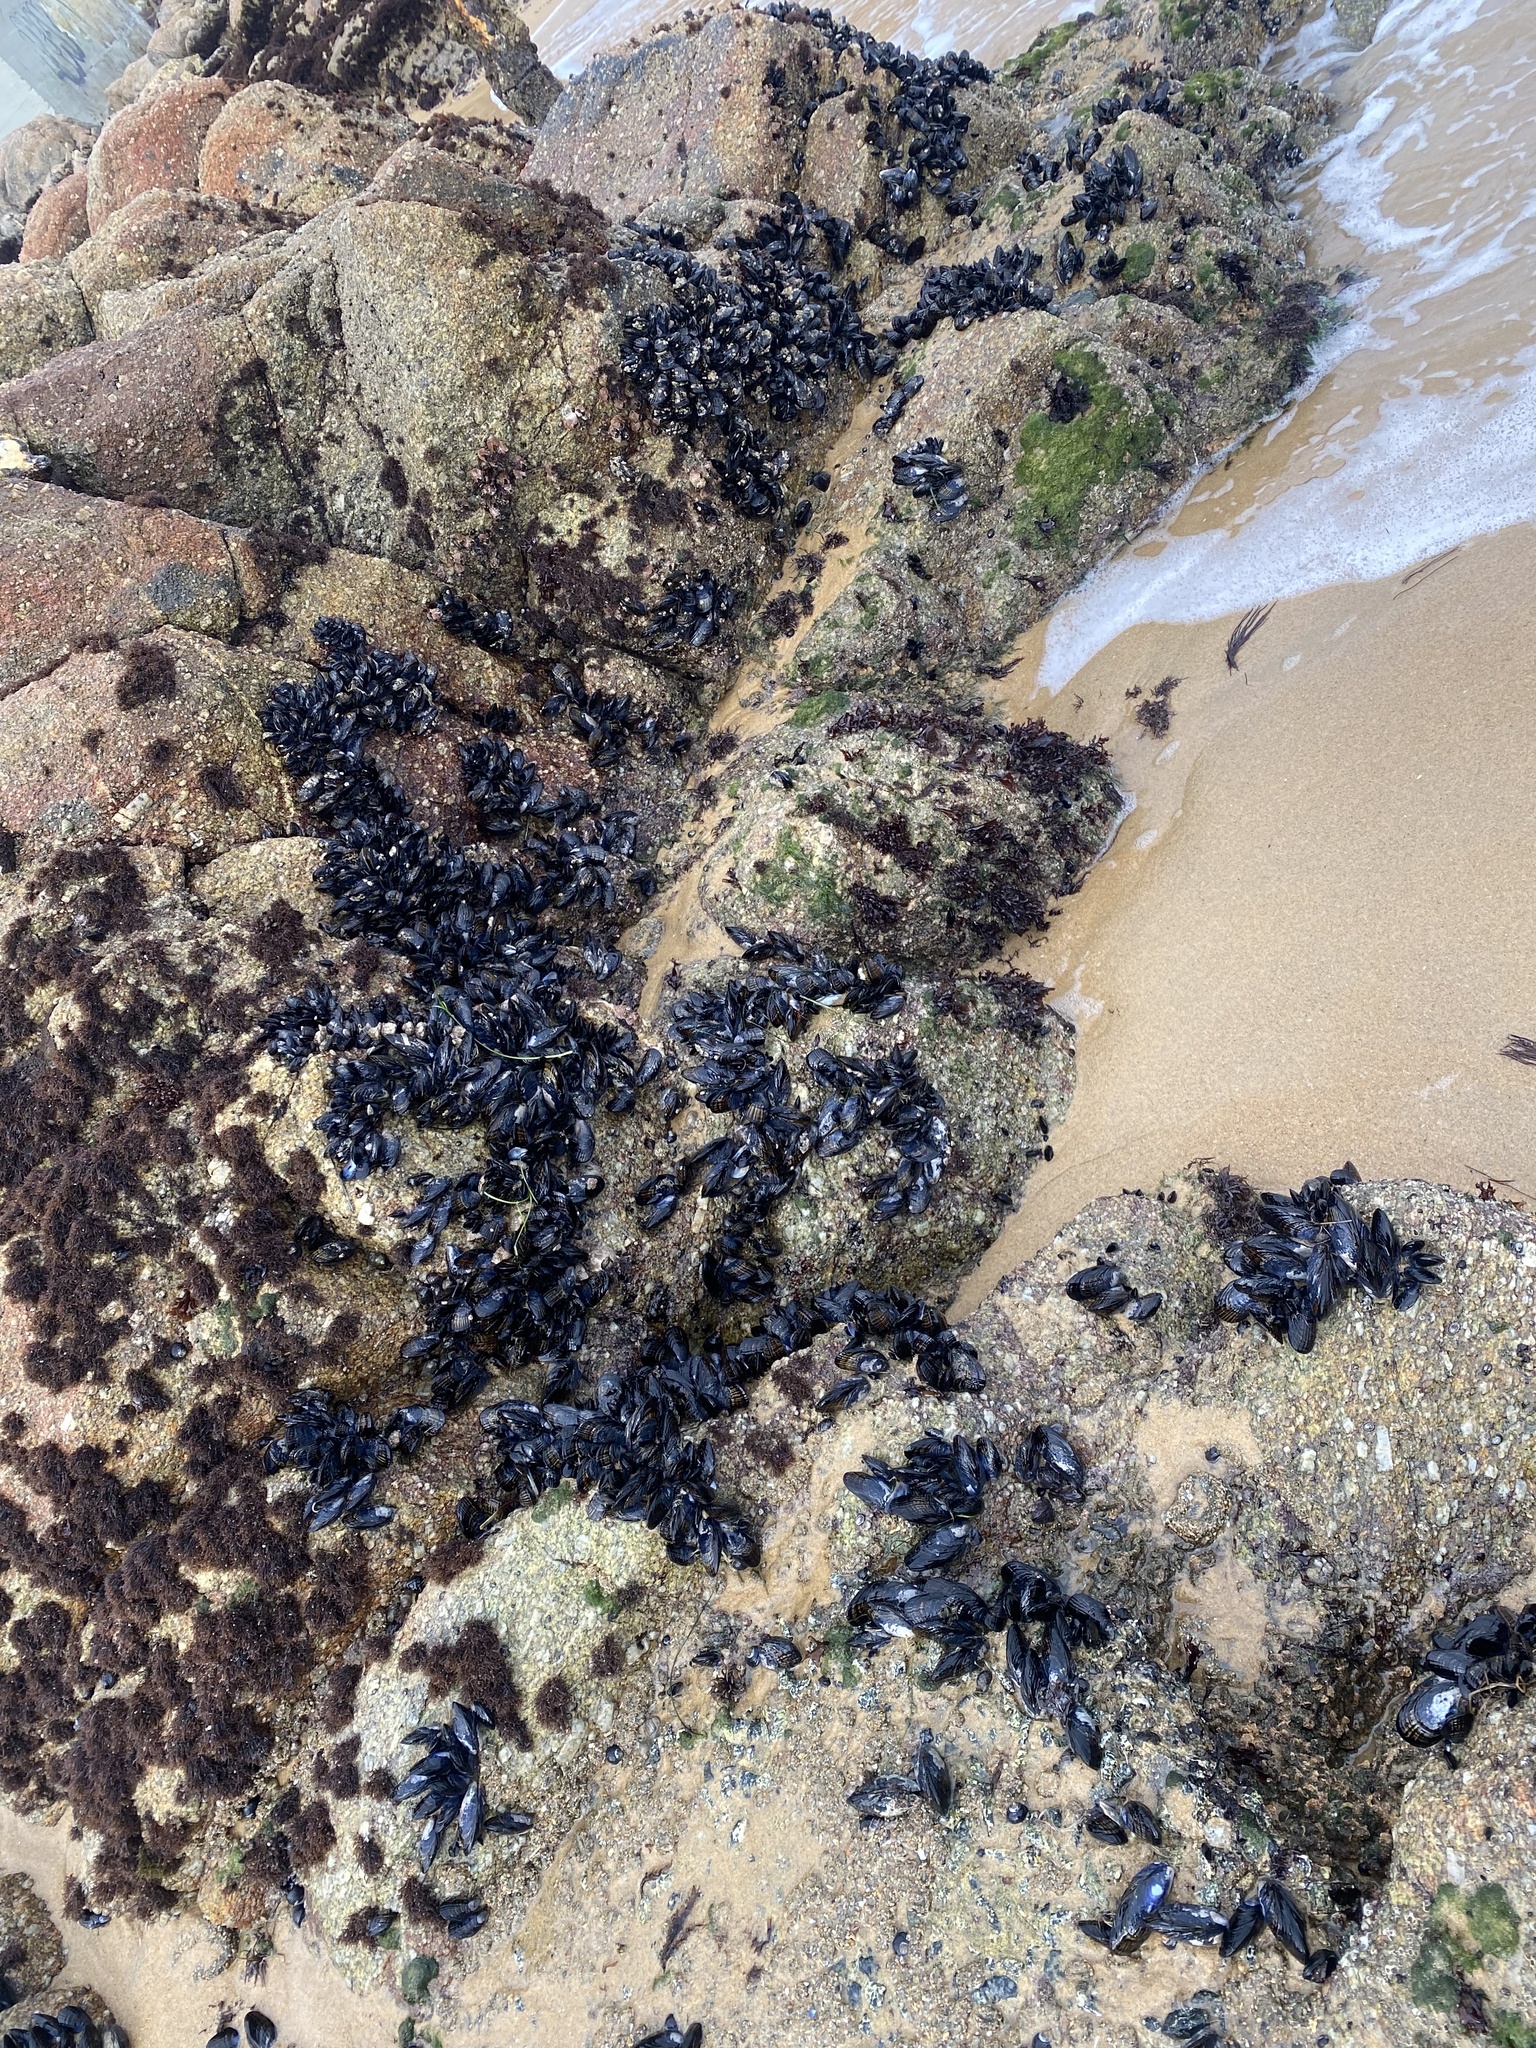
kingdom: Animalia
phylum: Mollusca
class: Bivalvia
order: Mytilida
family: Mytilidae
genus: Mytilus
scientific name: Mytilus californianus
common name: California mussel
